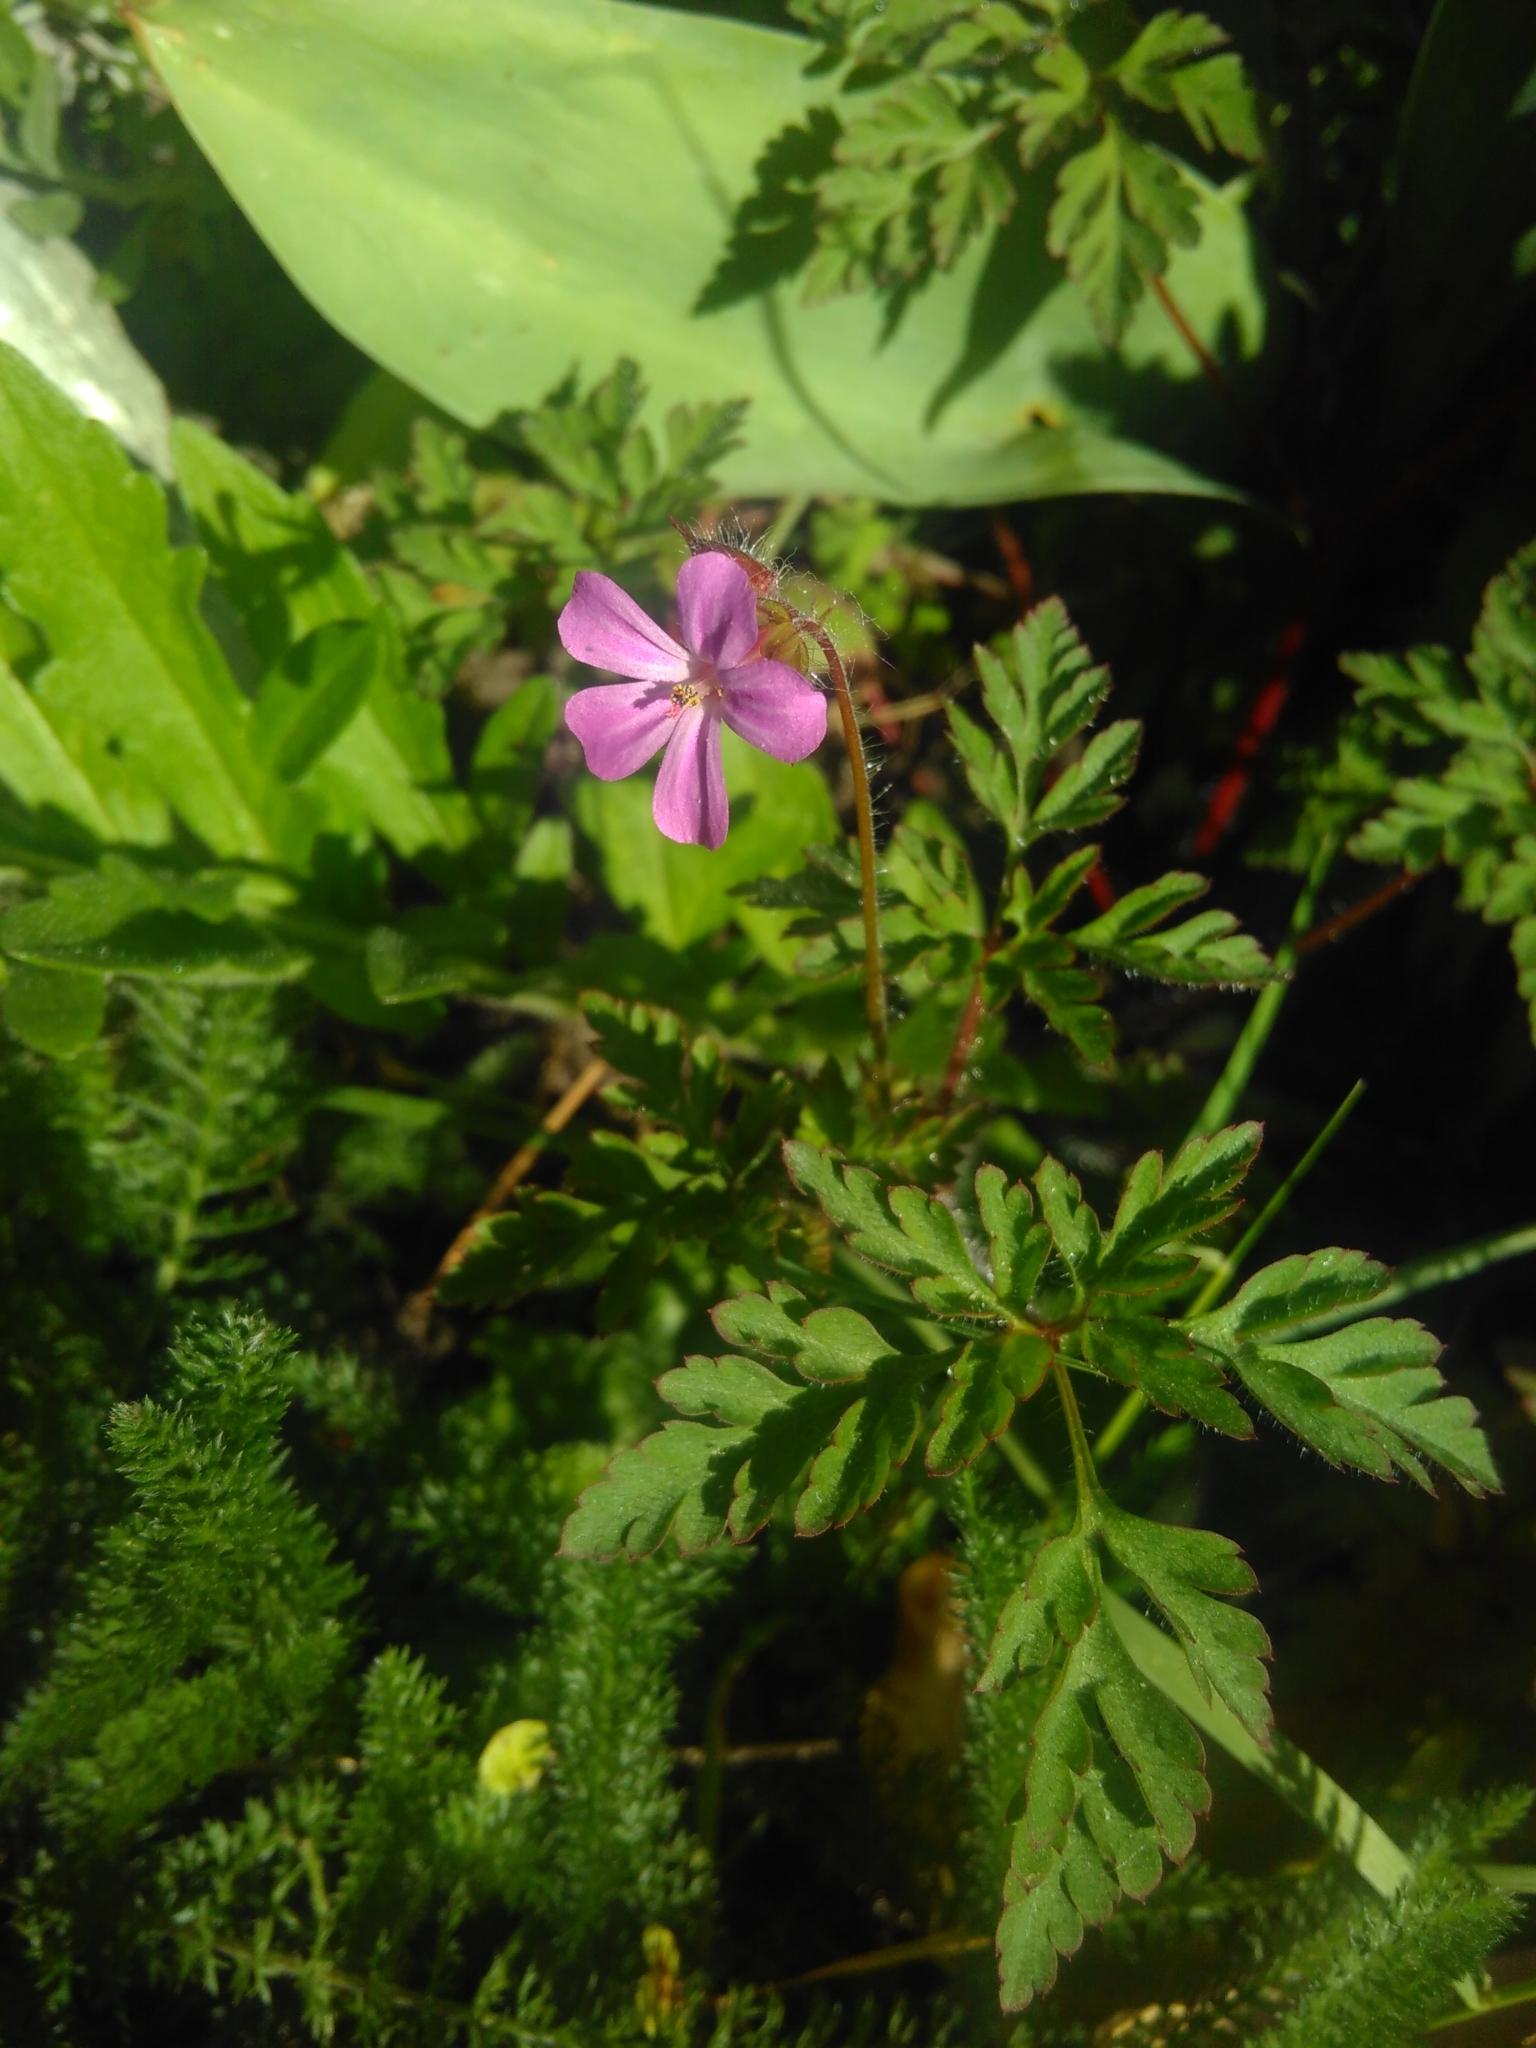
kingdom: Plantae
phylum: Tracheophyta
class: Magnoliopsida
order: Geraniales
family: Geraniaceae
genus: Geranium
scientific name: Geranium robertianum
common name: Herb-robert
